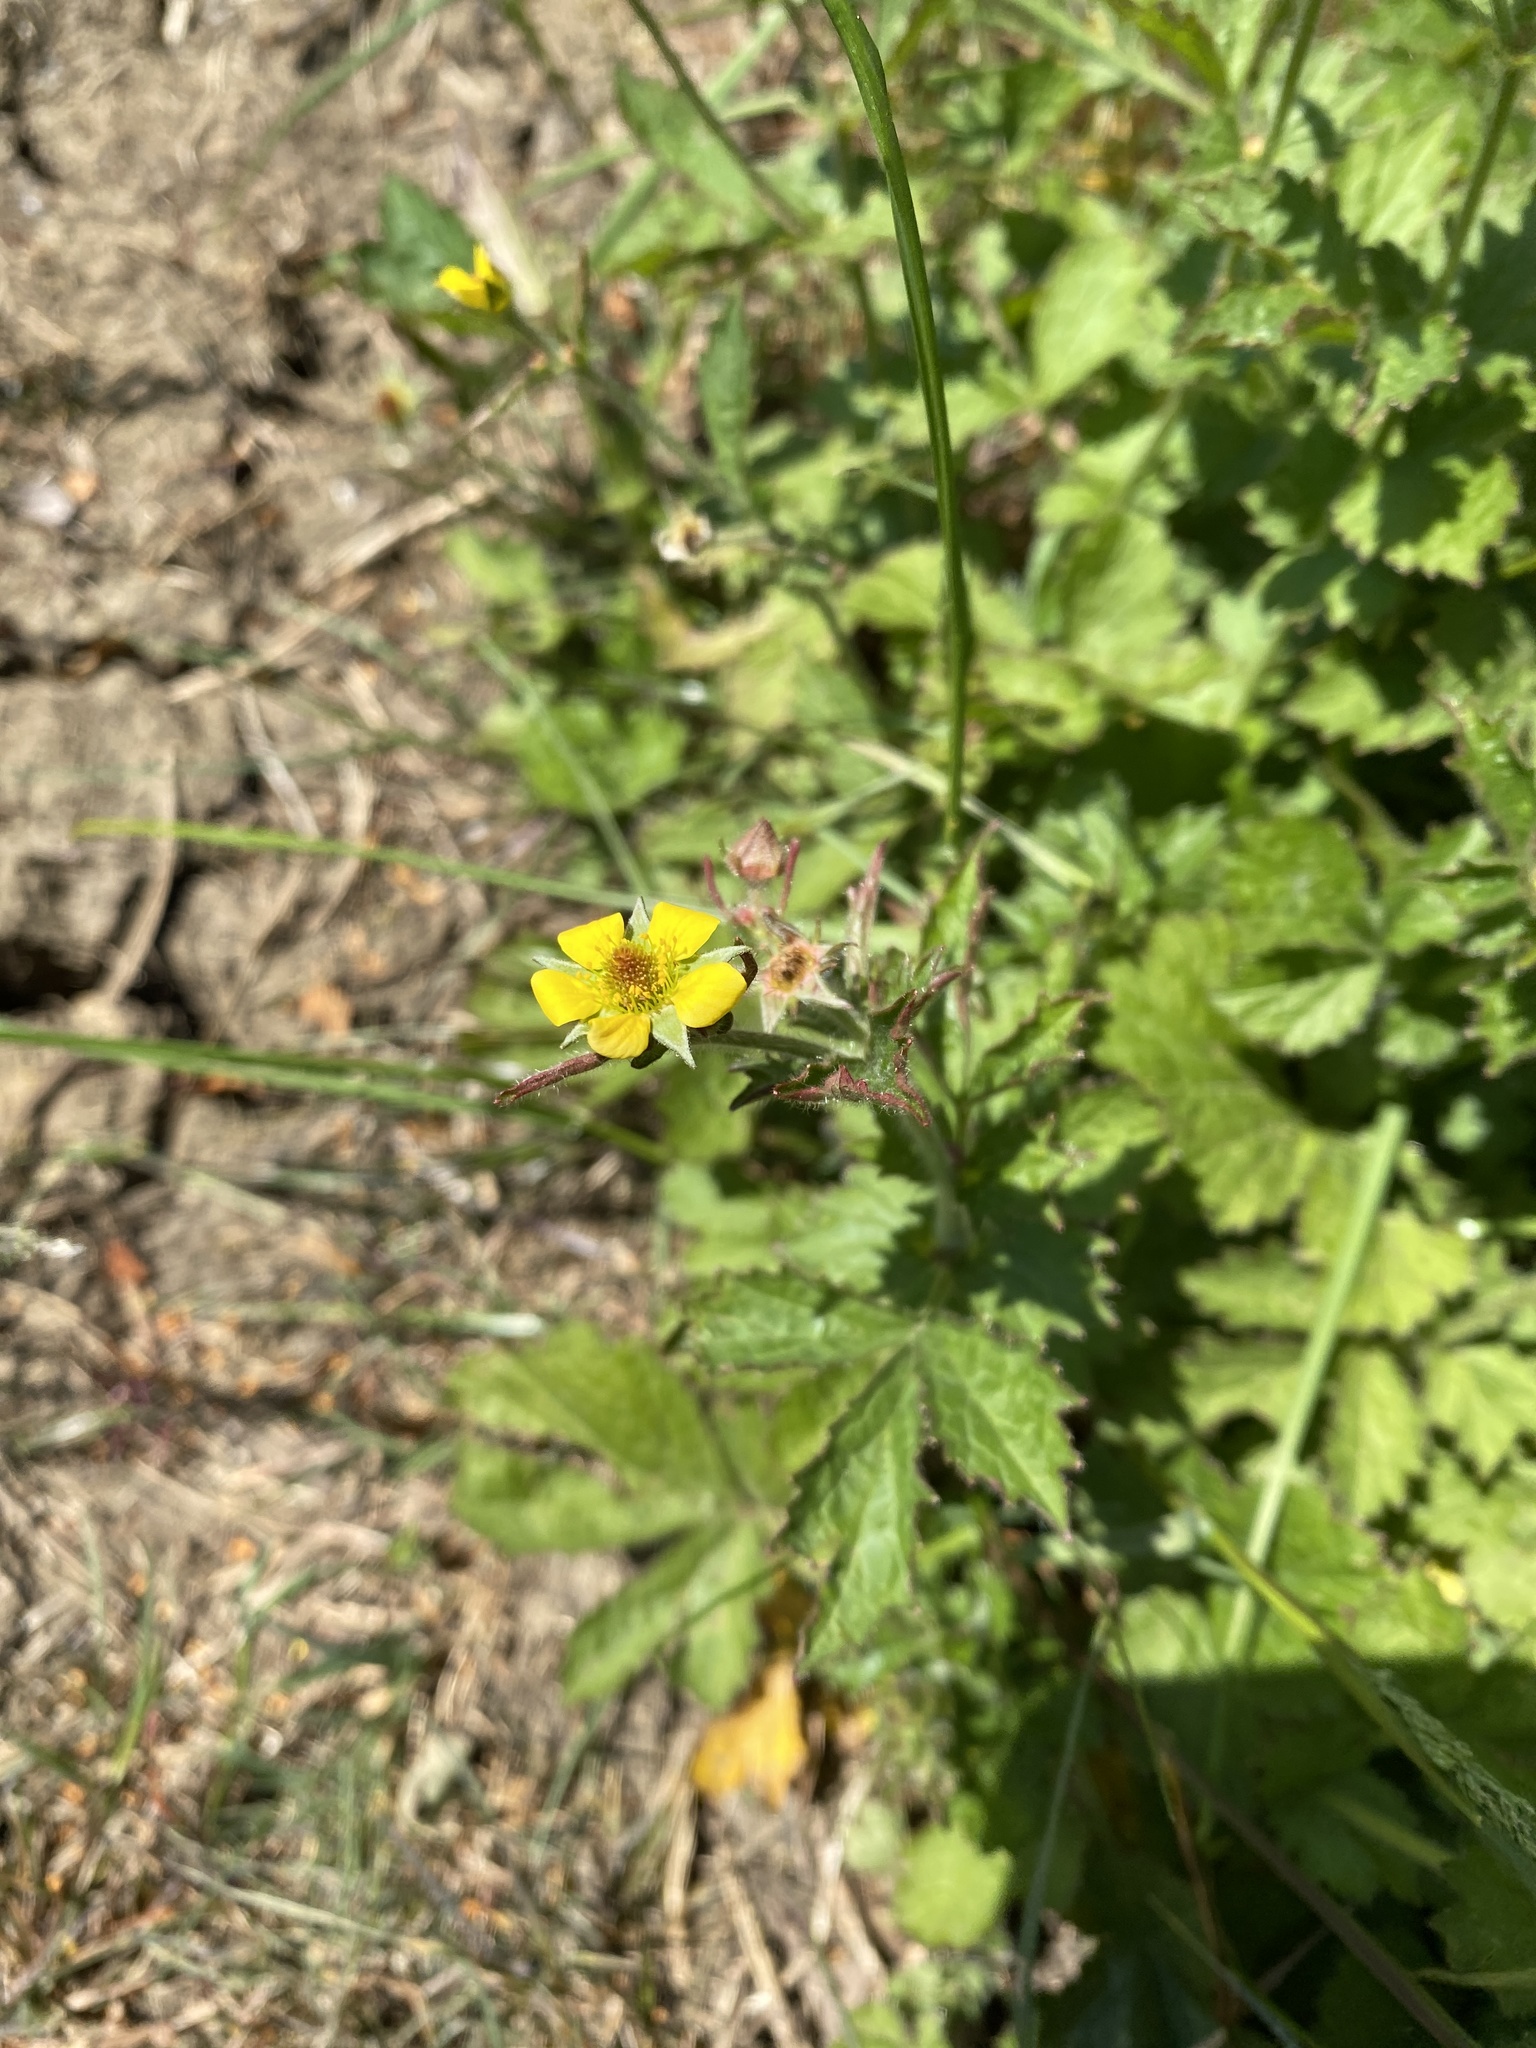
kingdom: Plantae
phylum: Tracheophyta
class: Magnoliopsida
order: Rosales
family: Rosaceae
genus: Geum
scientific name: Geum urbanum
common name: Wood avens
